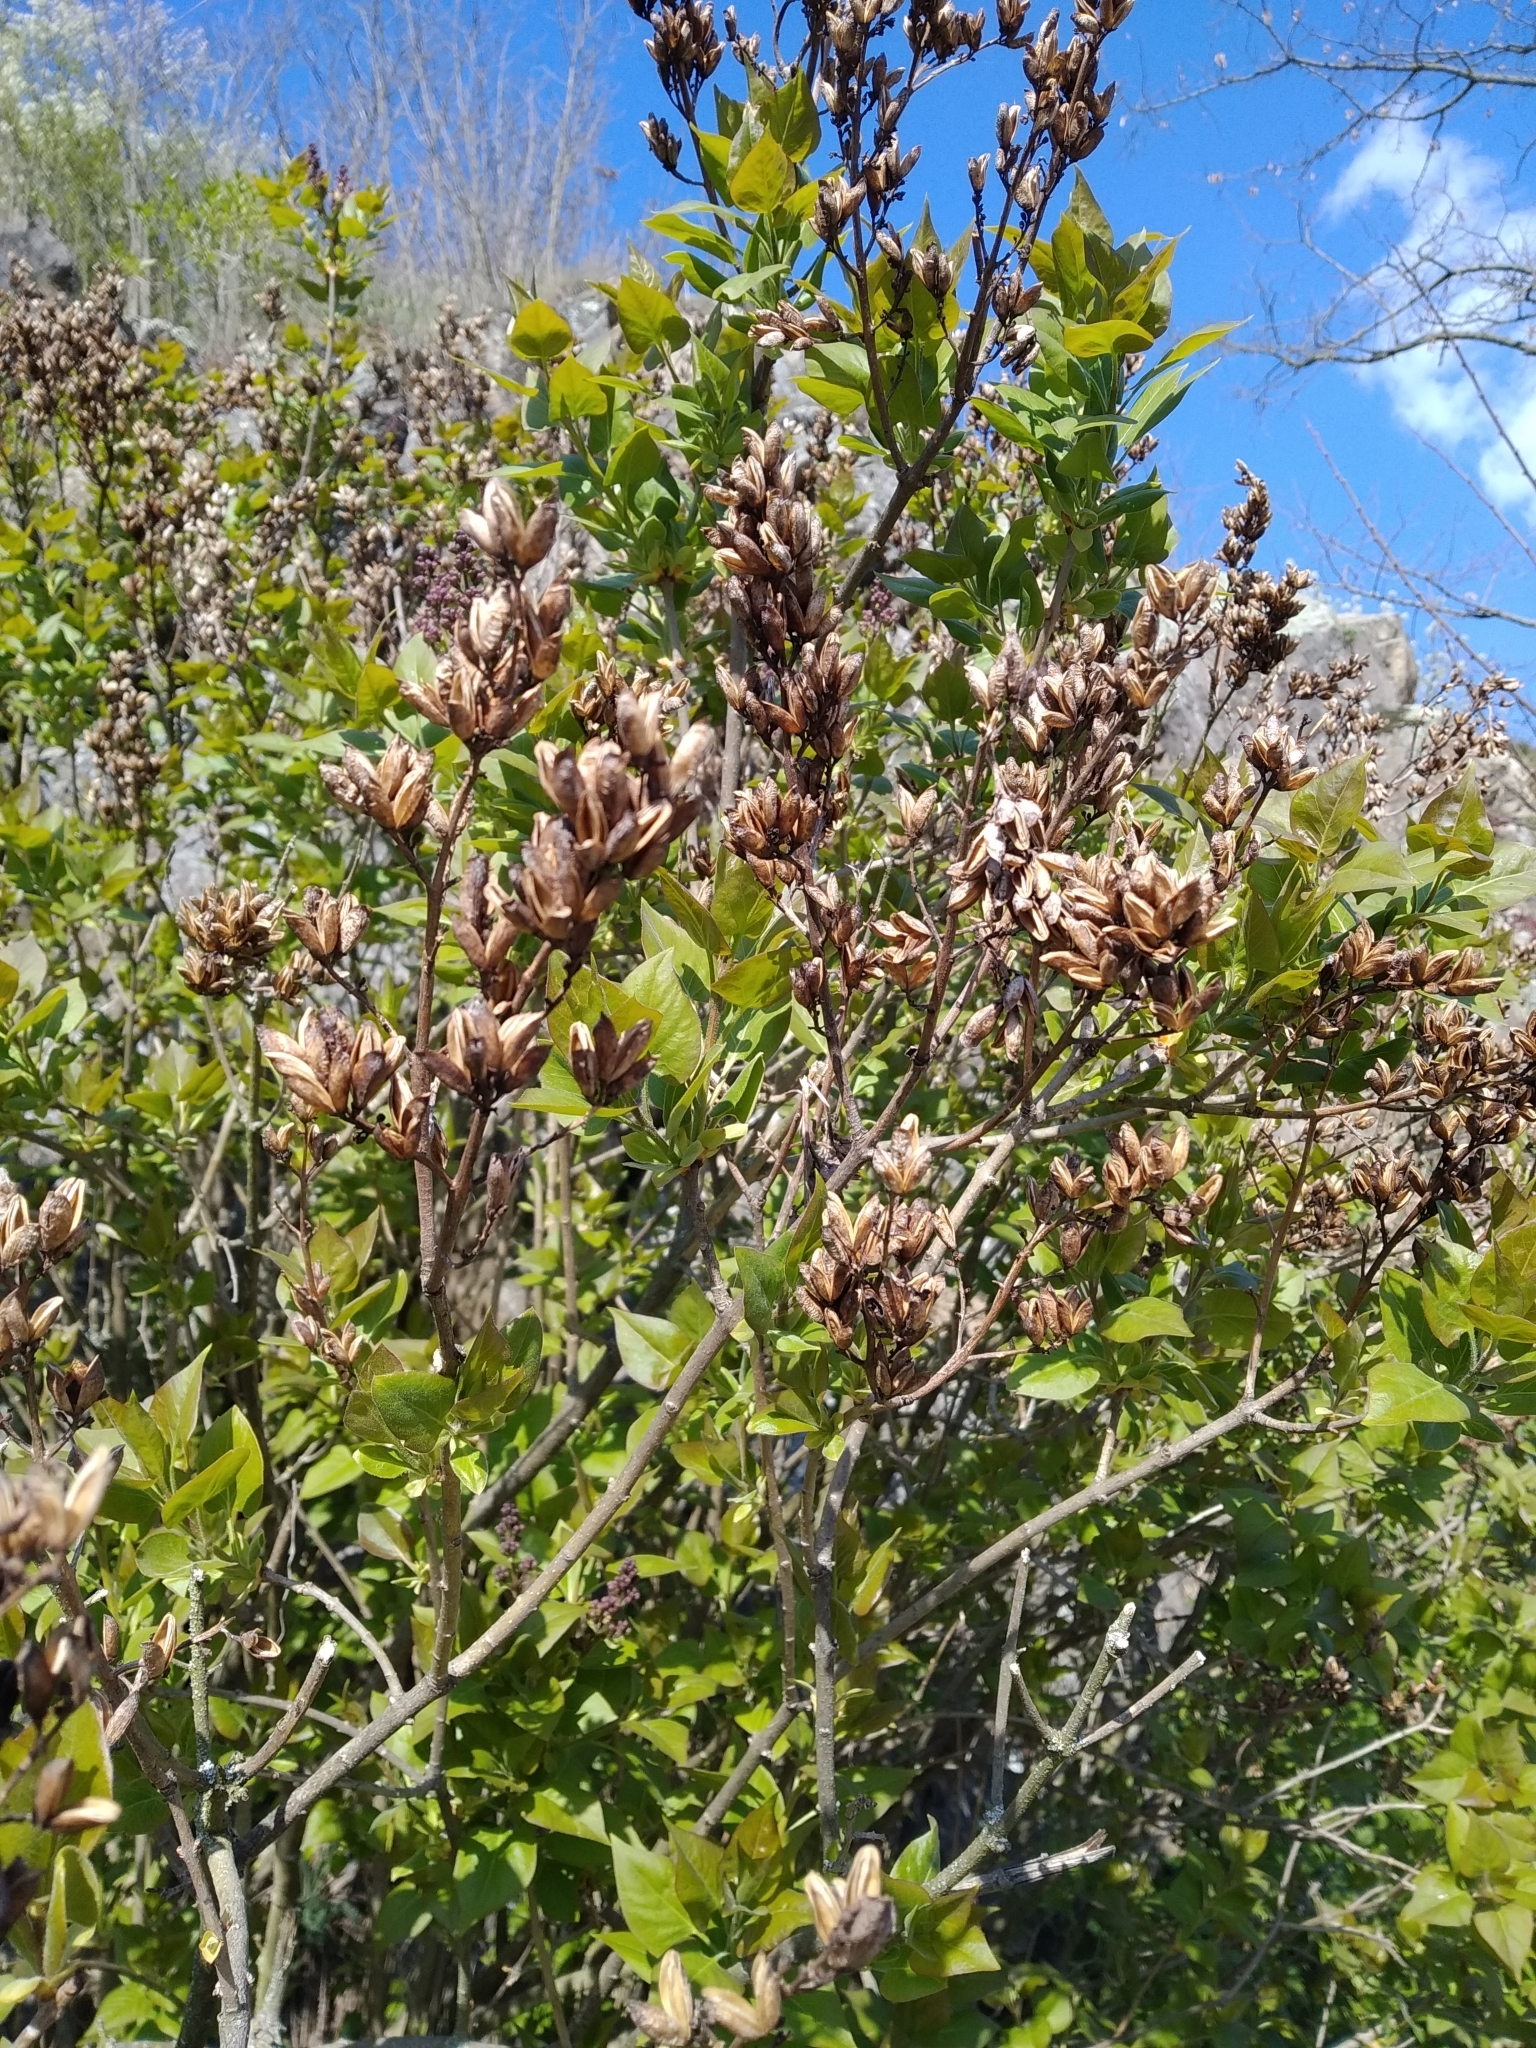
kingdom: Plantae
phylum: Tracheophyta
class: Magnoliopsida
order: Lamiales
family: Oleaceae
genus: Syringa
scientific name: Syringa vulgaris
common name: Common lilac
